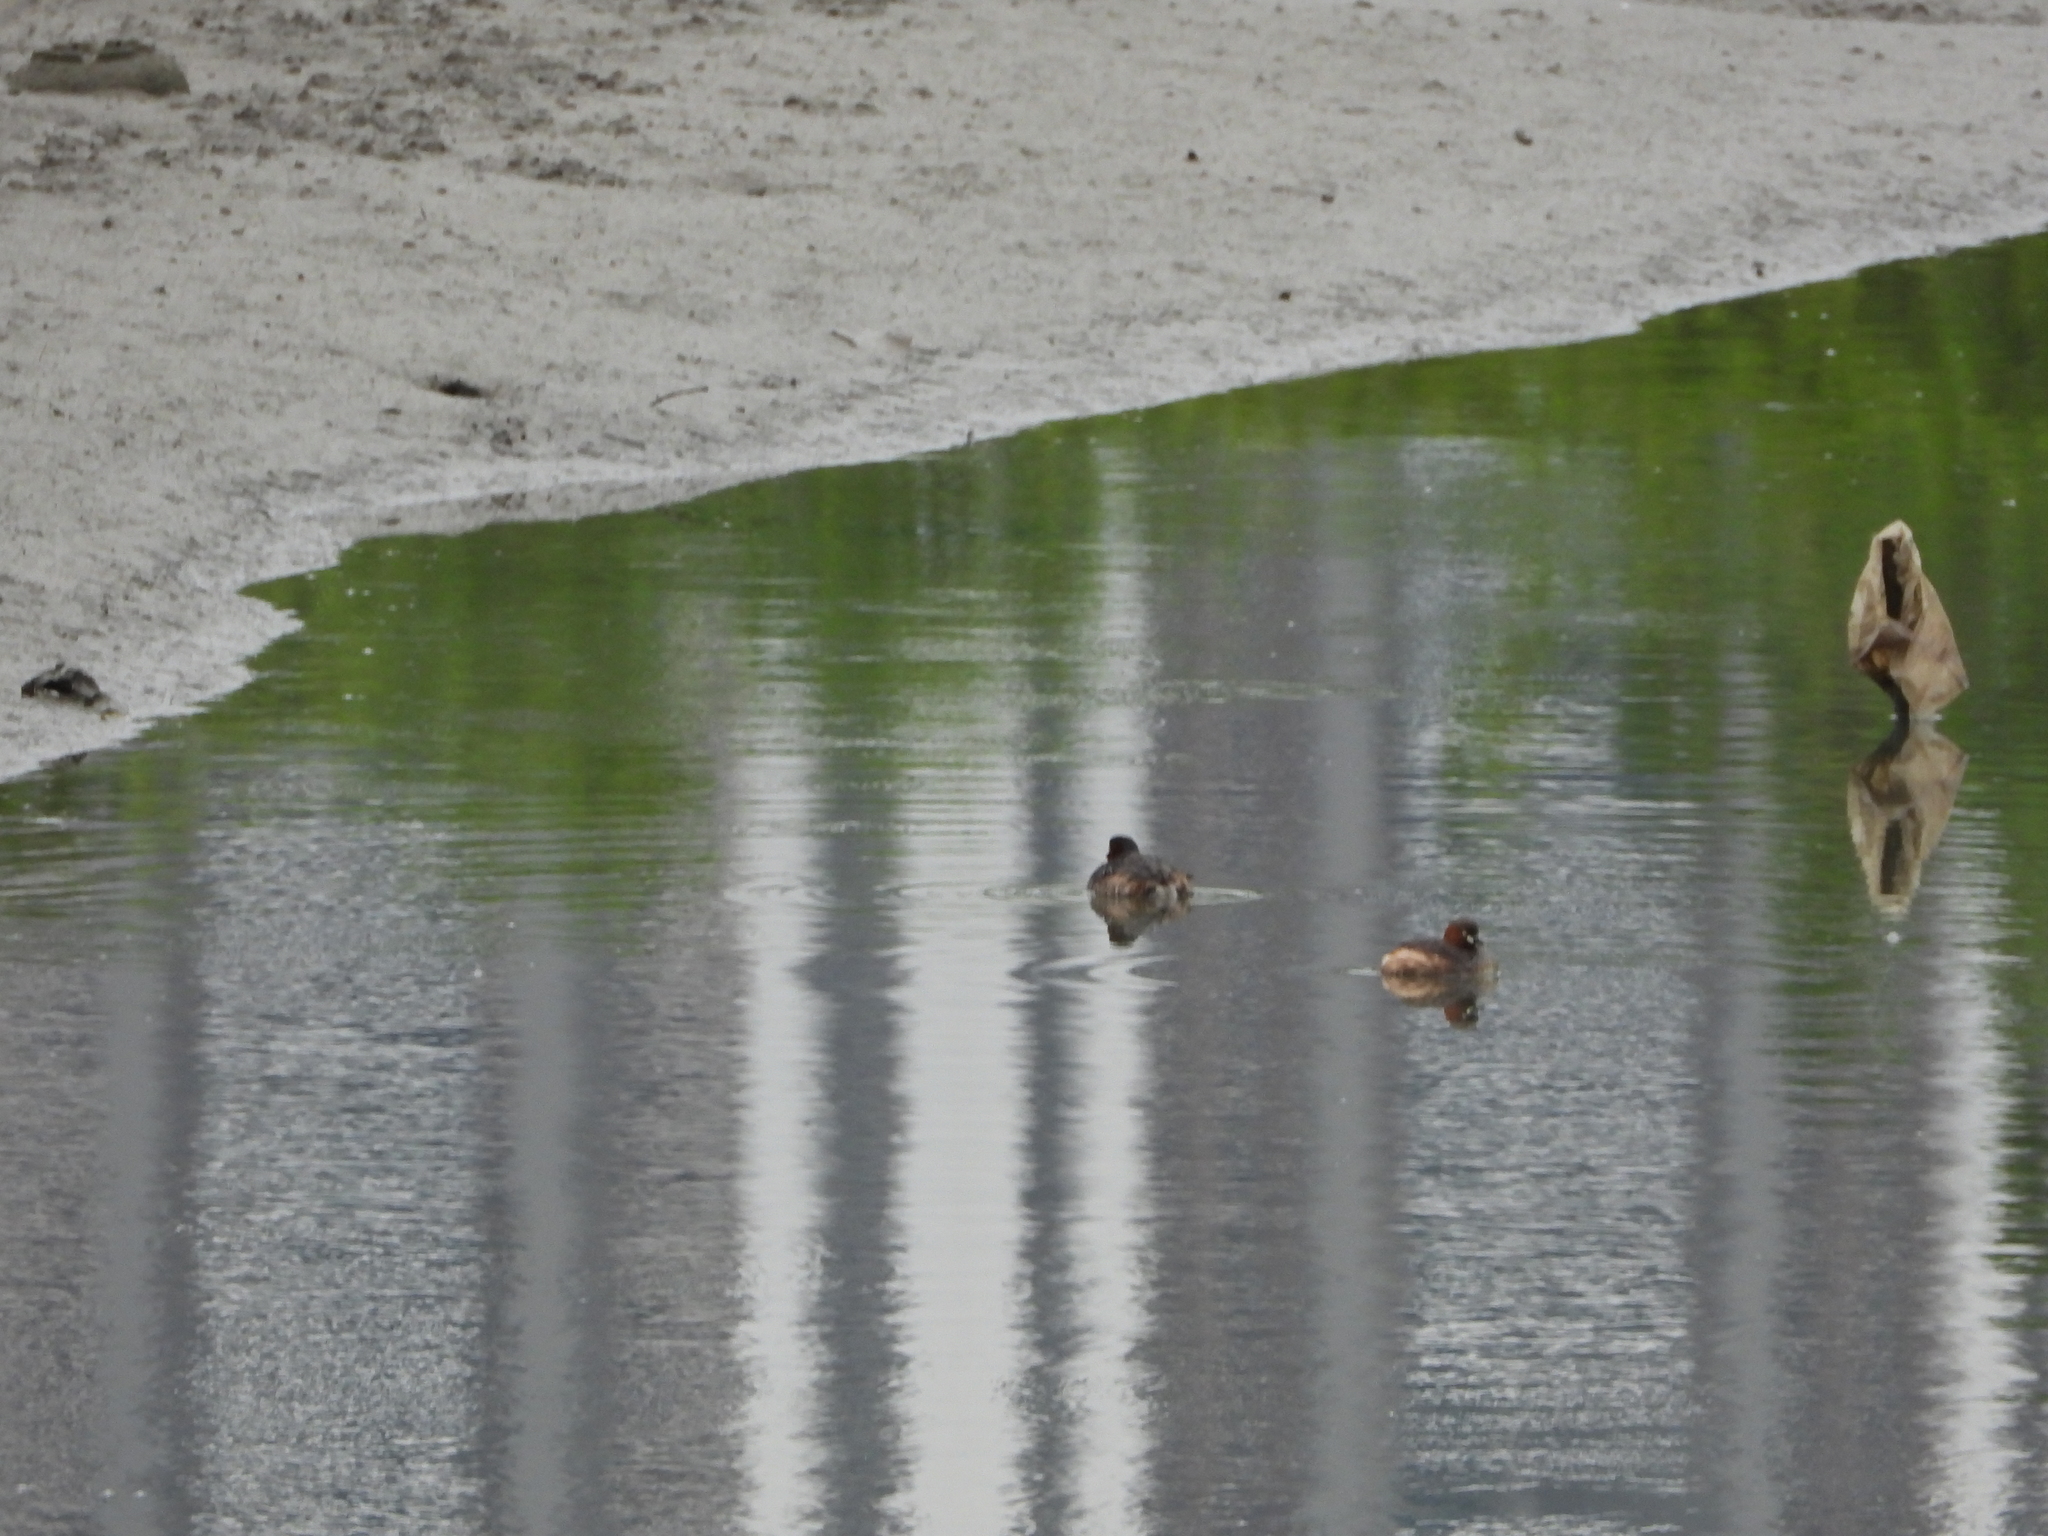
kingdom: Animalia
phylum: Chordata
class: Aves
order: Podicipediformes
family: Podicipedidae
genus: Tachybaptus
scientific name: Tachybaptus ruficollis
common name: Little grebe
